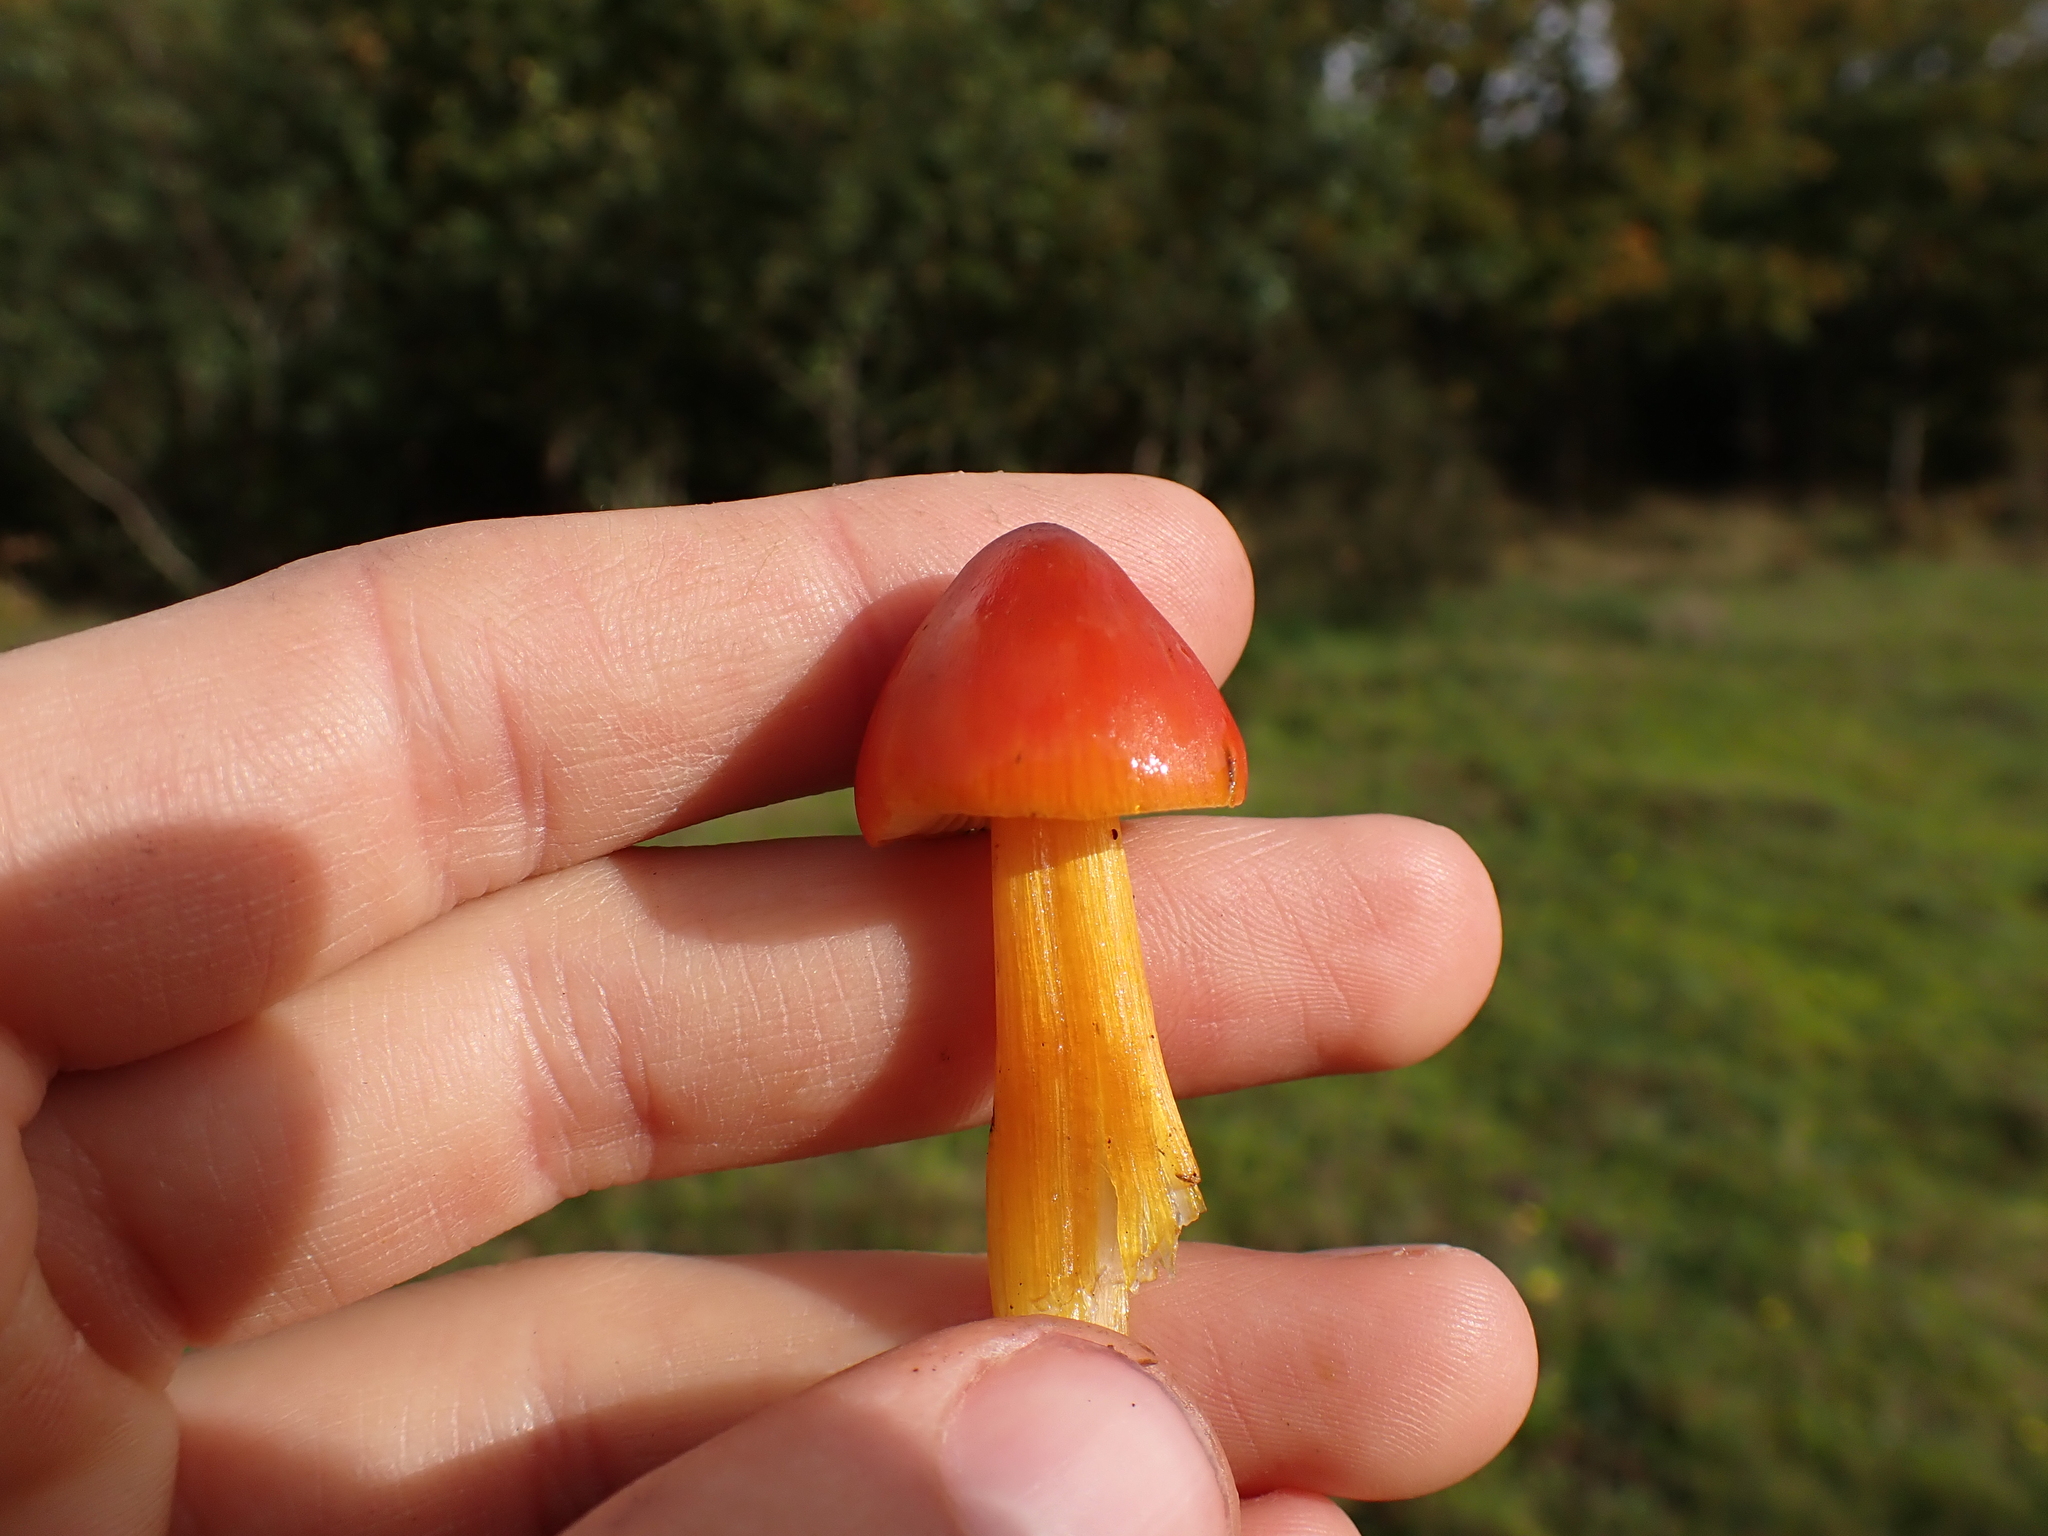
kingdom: Fungi
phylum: Basidiomycota
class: Agaricomycetes
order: Agaricales
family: Hygrophoraceae
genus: Hygrocybe
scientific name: Hygrocybe punicea
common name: Crimson waxcap
